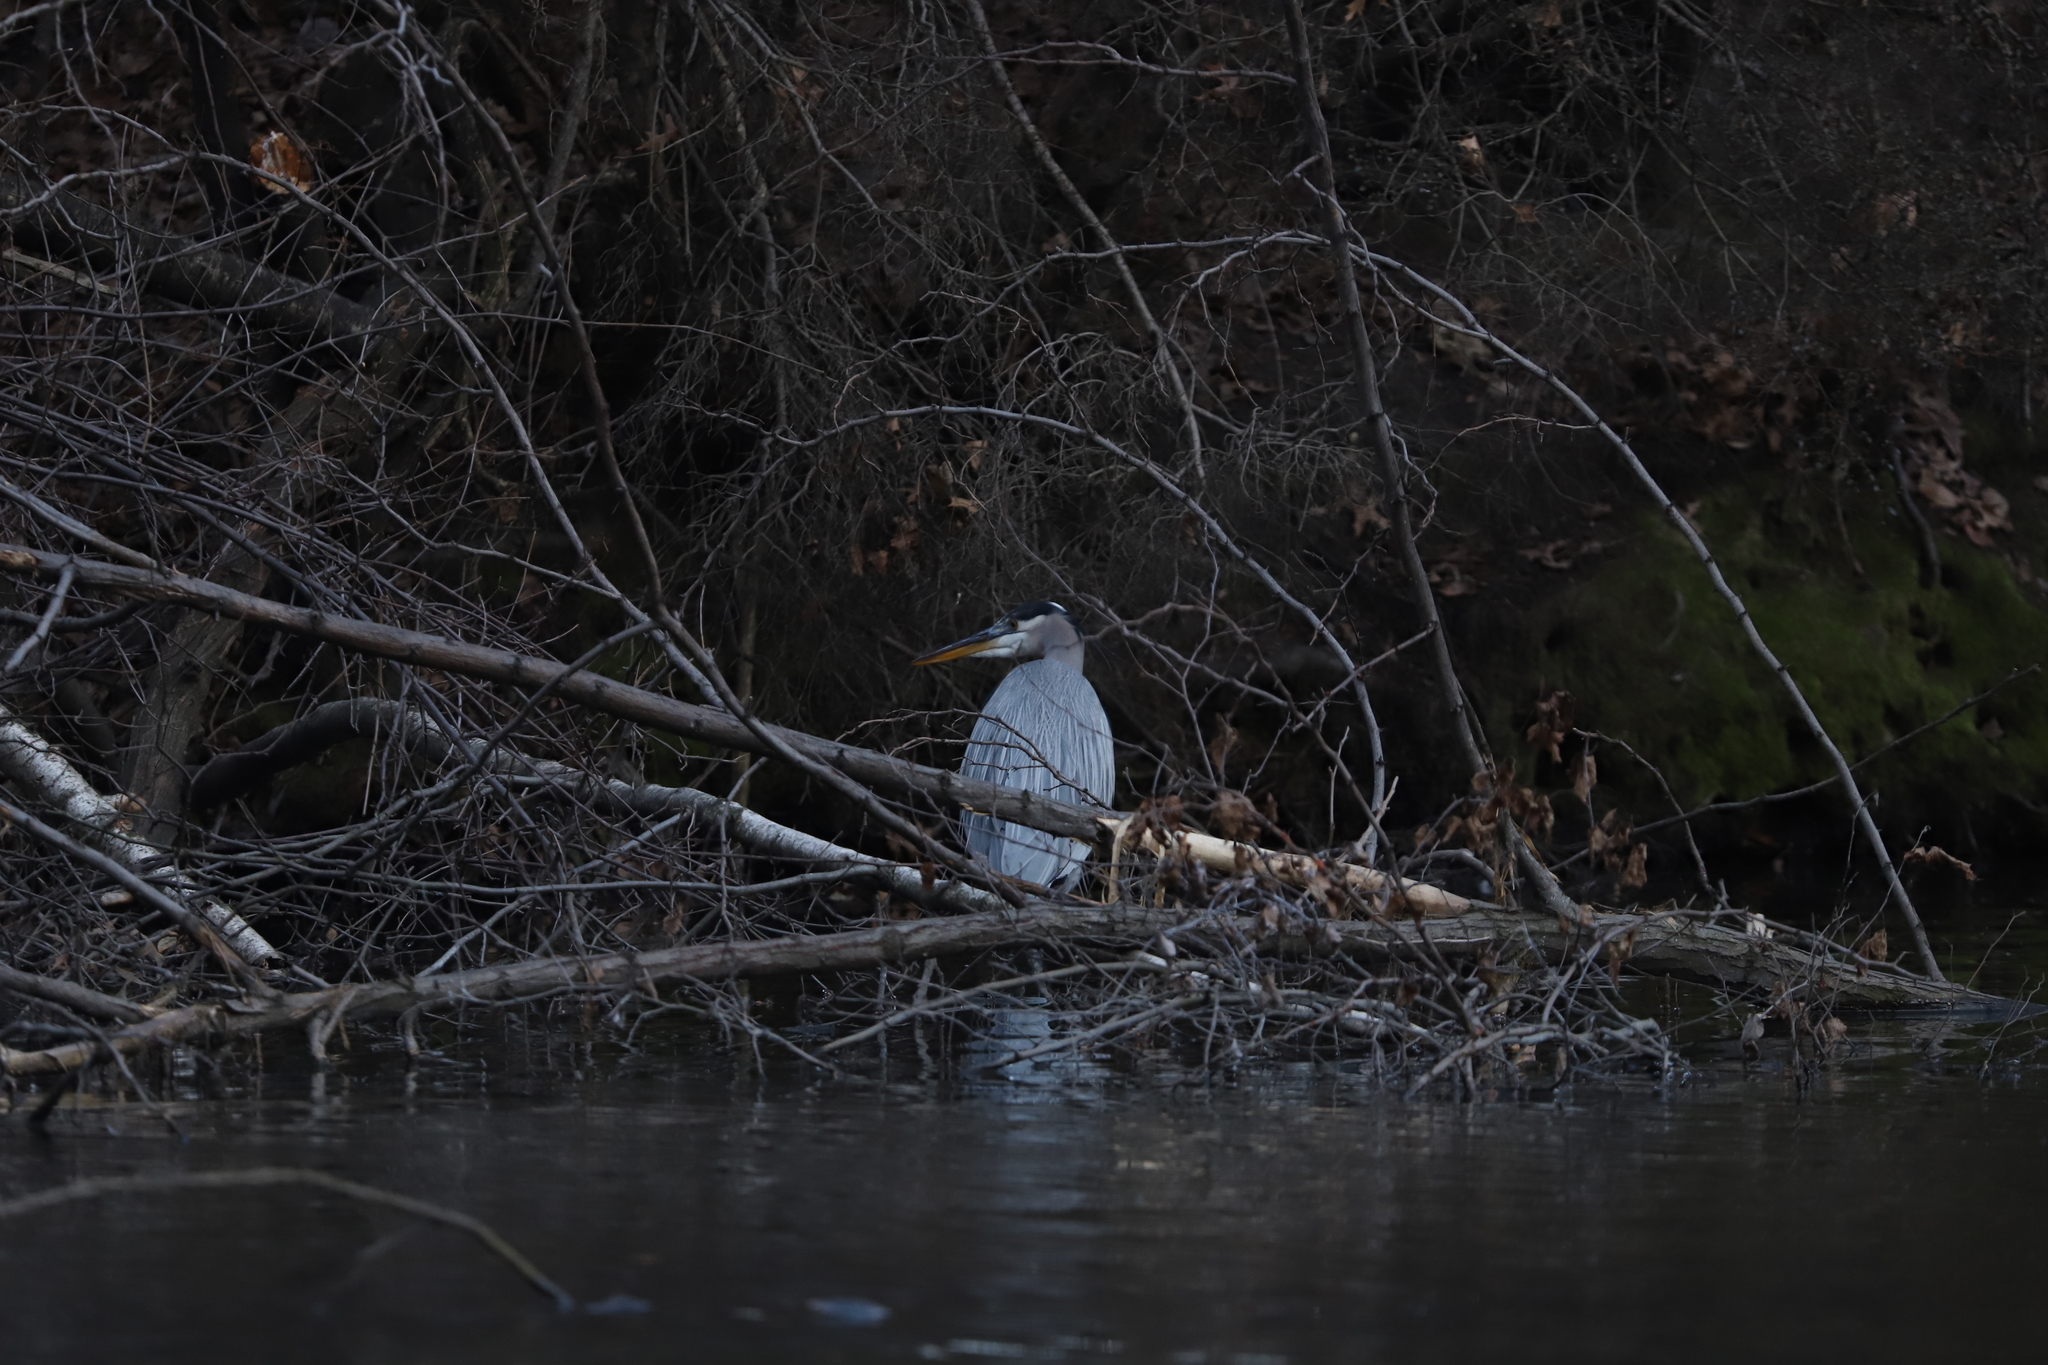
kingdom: Animalia
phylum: Chordata
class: Aves
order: Pelecaniformes
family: Ardeidae
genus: Ardea
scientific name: Ardea herodias
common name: Great blue heron
